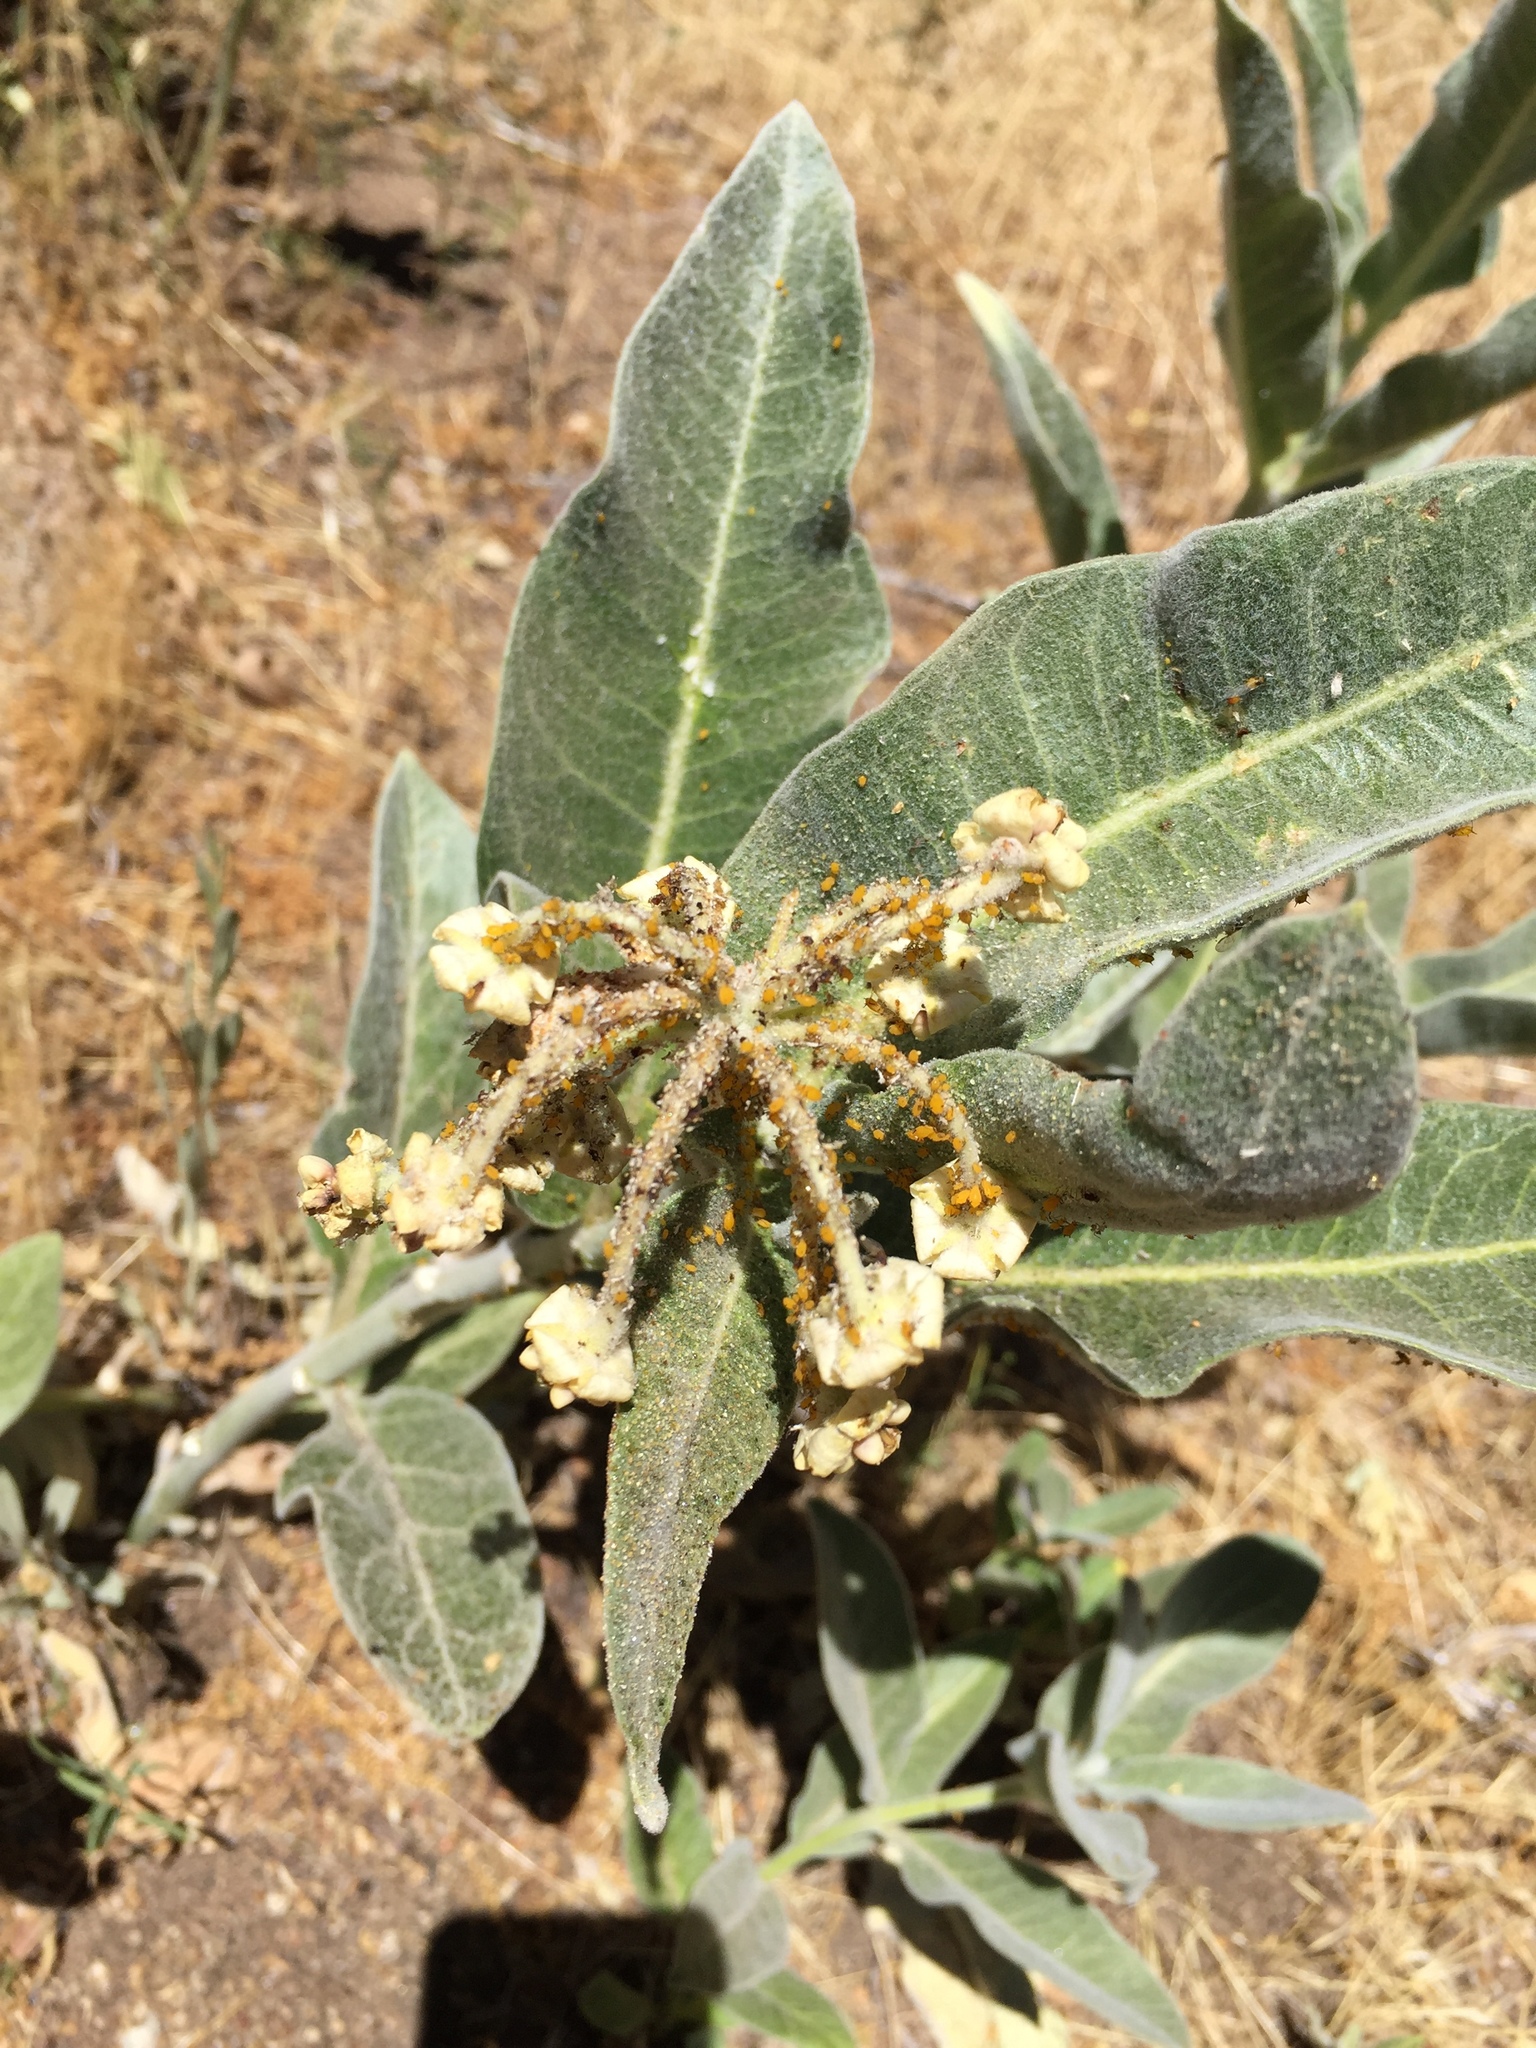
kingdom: Plantae
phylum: Tracheophyta
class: Magnoliopsida
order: Gentianales
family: Apocynaceae
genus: Asclepias
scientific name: Asclepias eriocarpa
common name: Indian milkweed
